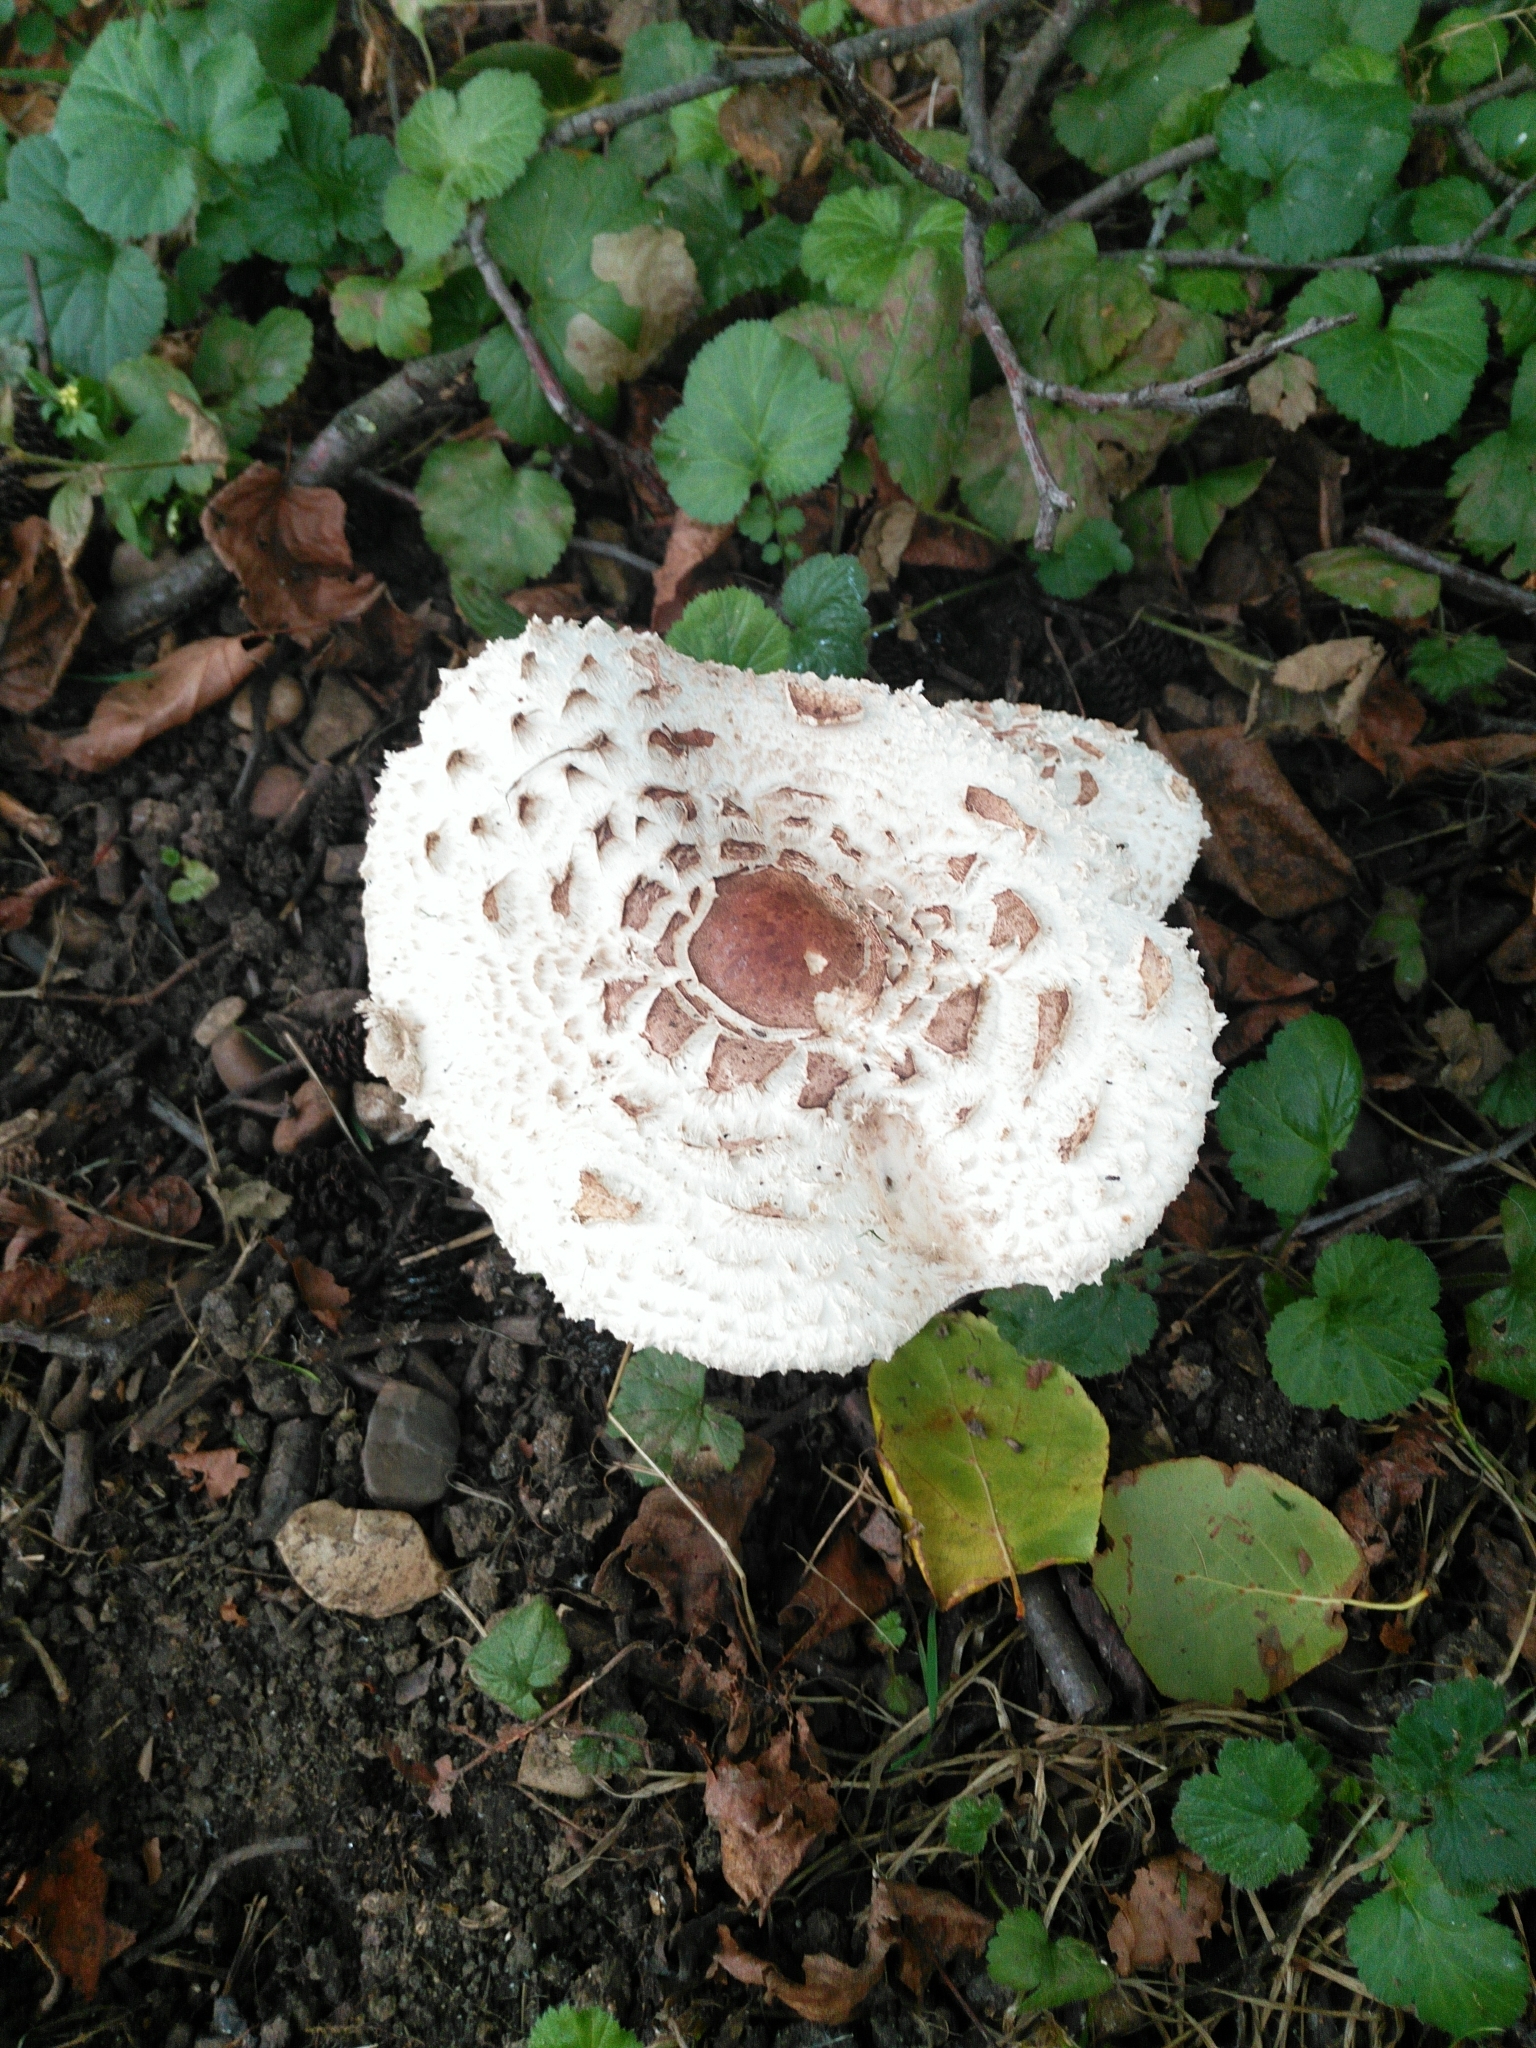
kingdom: Fungi
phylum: Basidiomycota
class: Agaricomycetes
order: Agaricales
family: Agaricaceae
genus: Chlorophyllum
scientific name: Chlorophyllum brunneum
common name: Brown parasol
